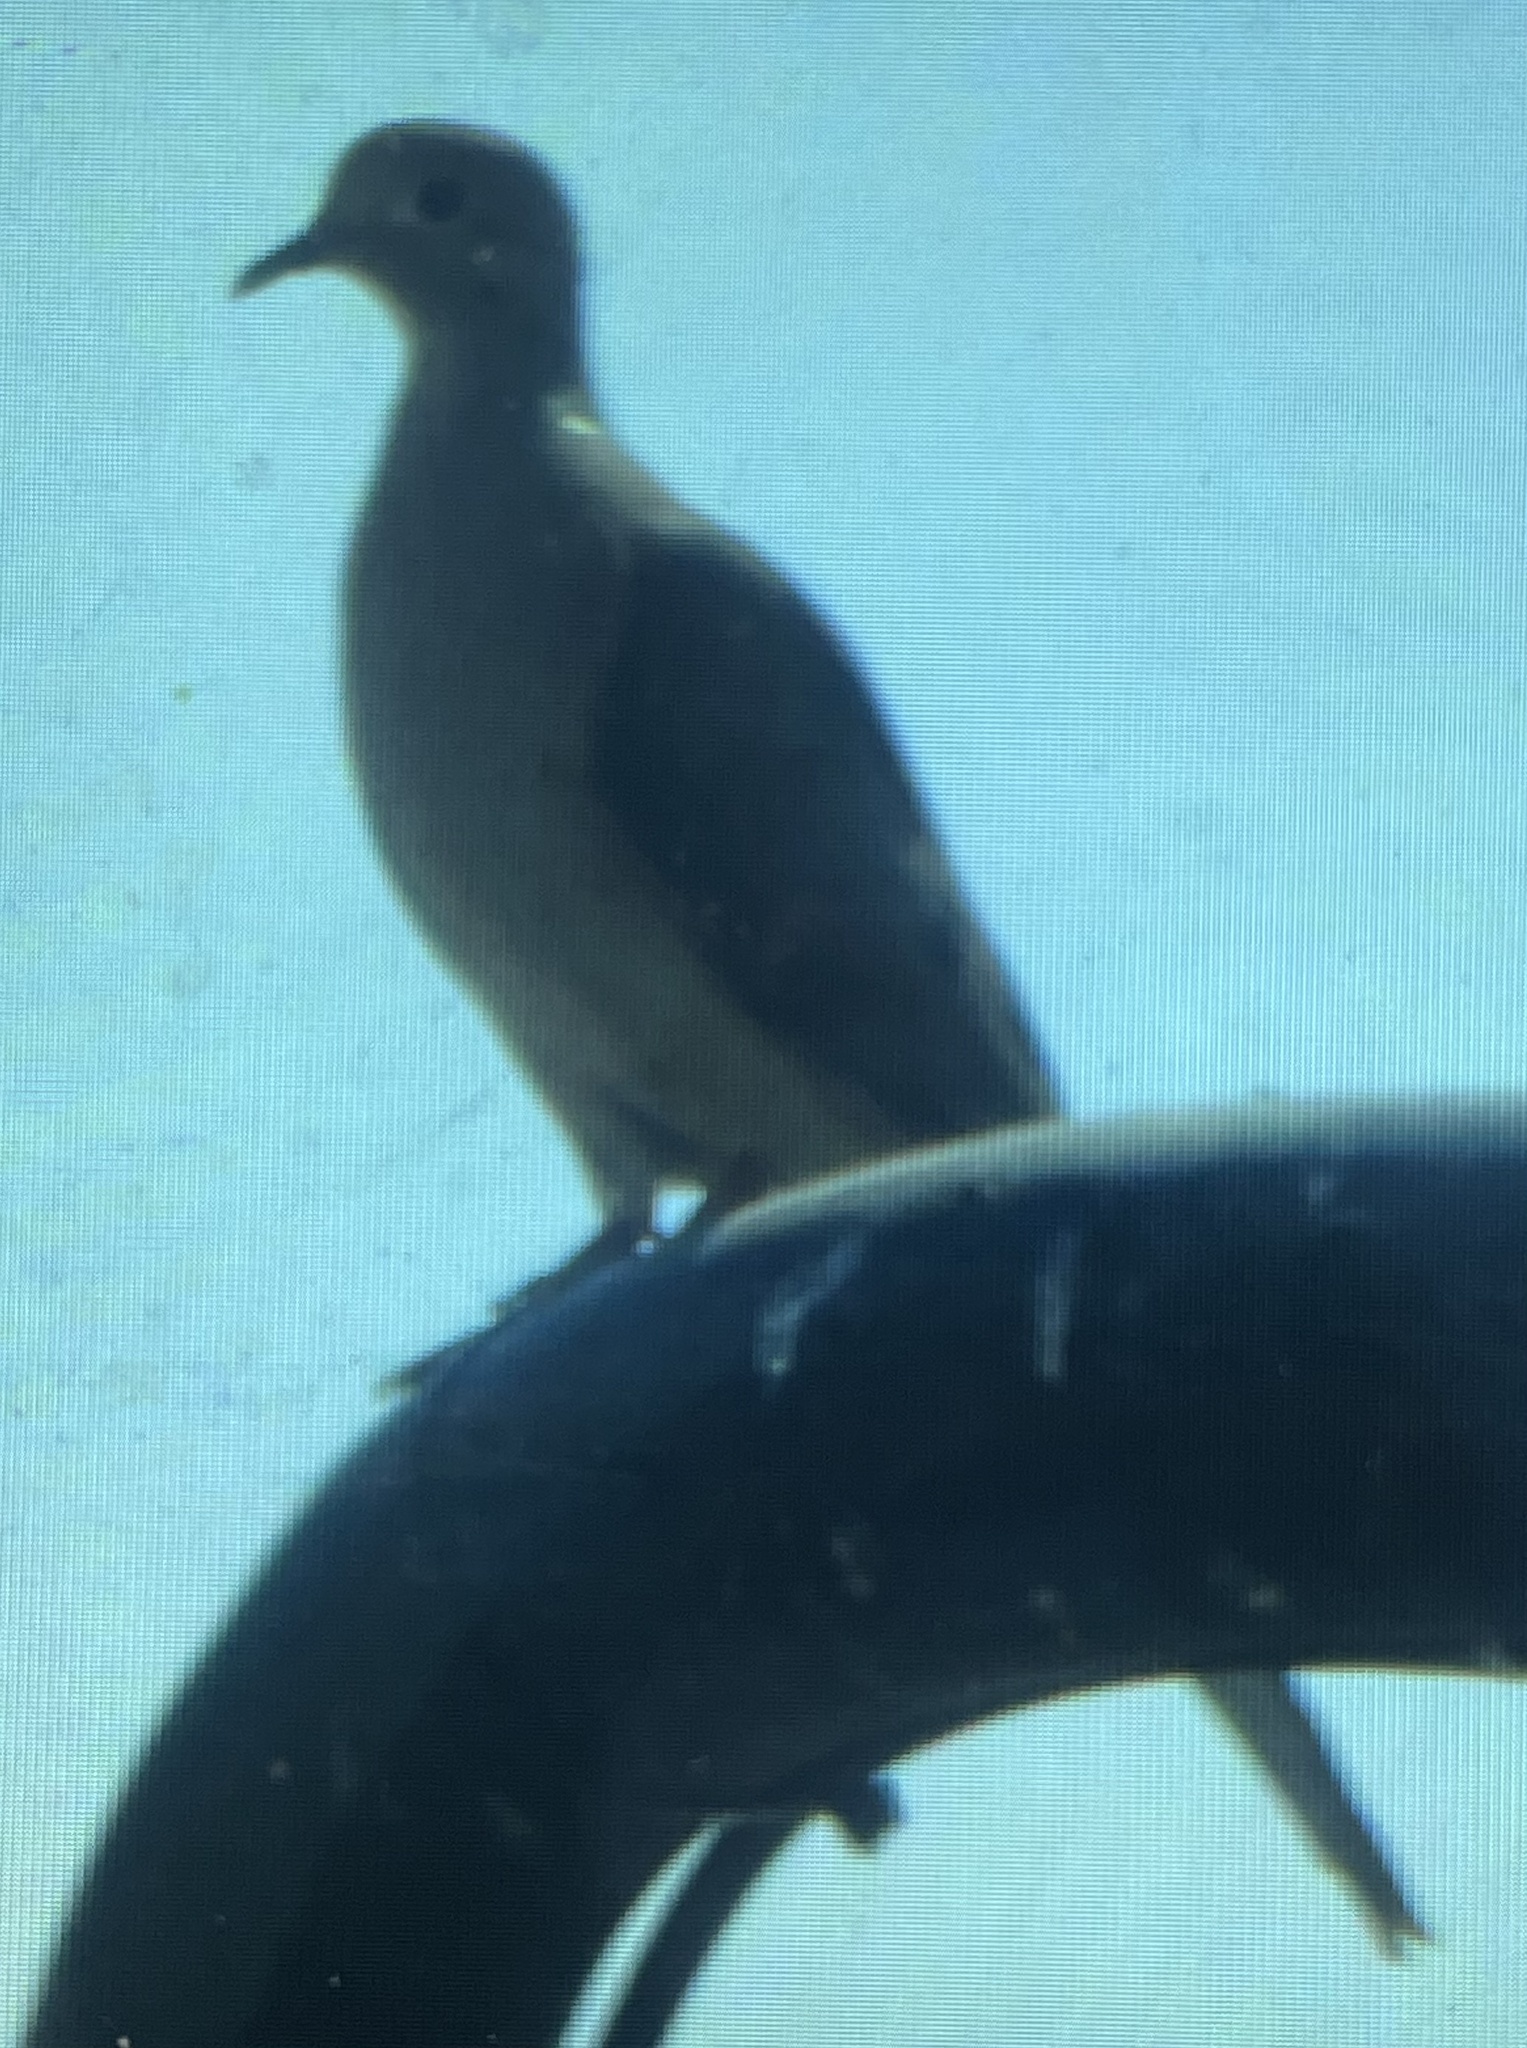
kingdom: Animalia
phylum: Chordata
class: Aves
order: Columbiformes
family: Columbidae
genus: Zenaida
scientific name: Zenaida macroura
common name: Mourning dove
